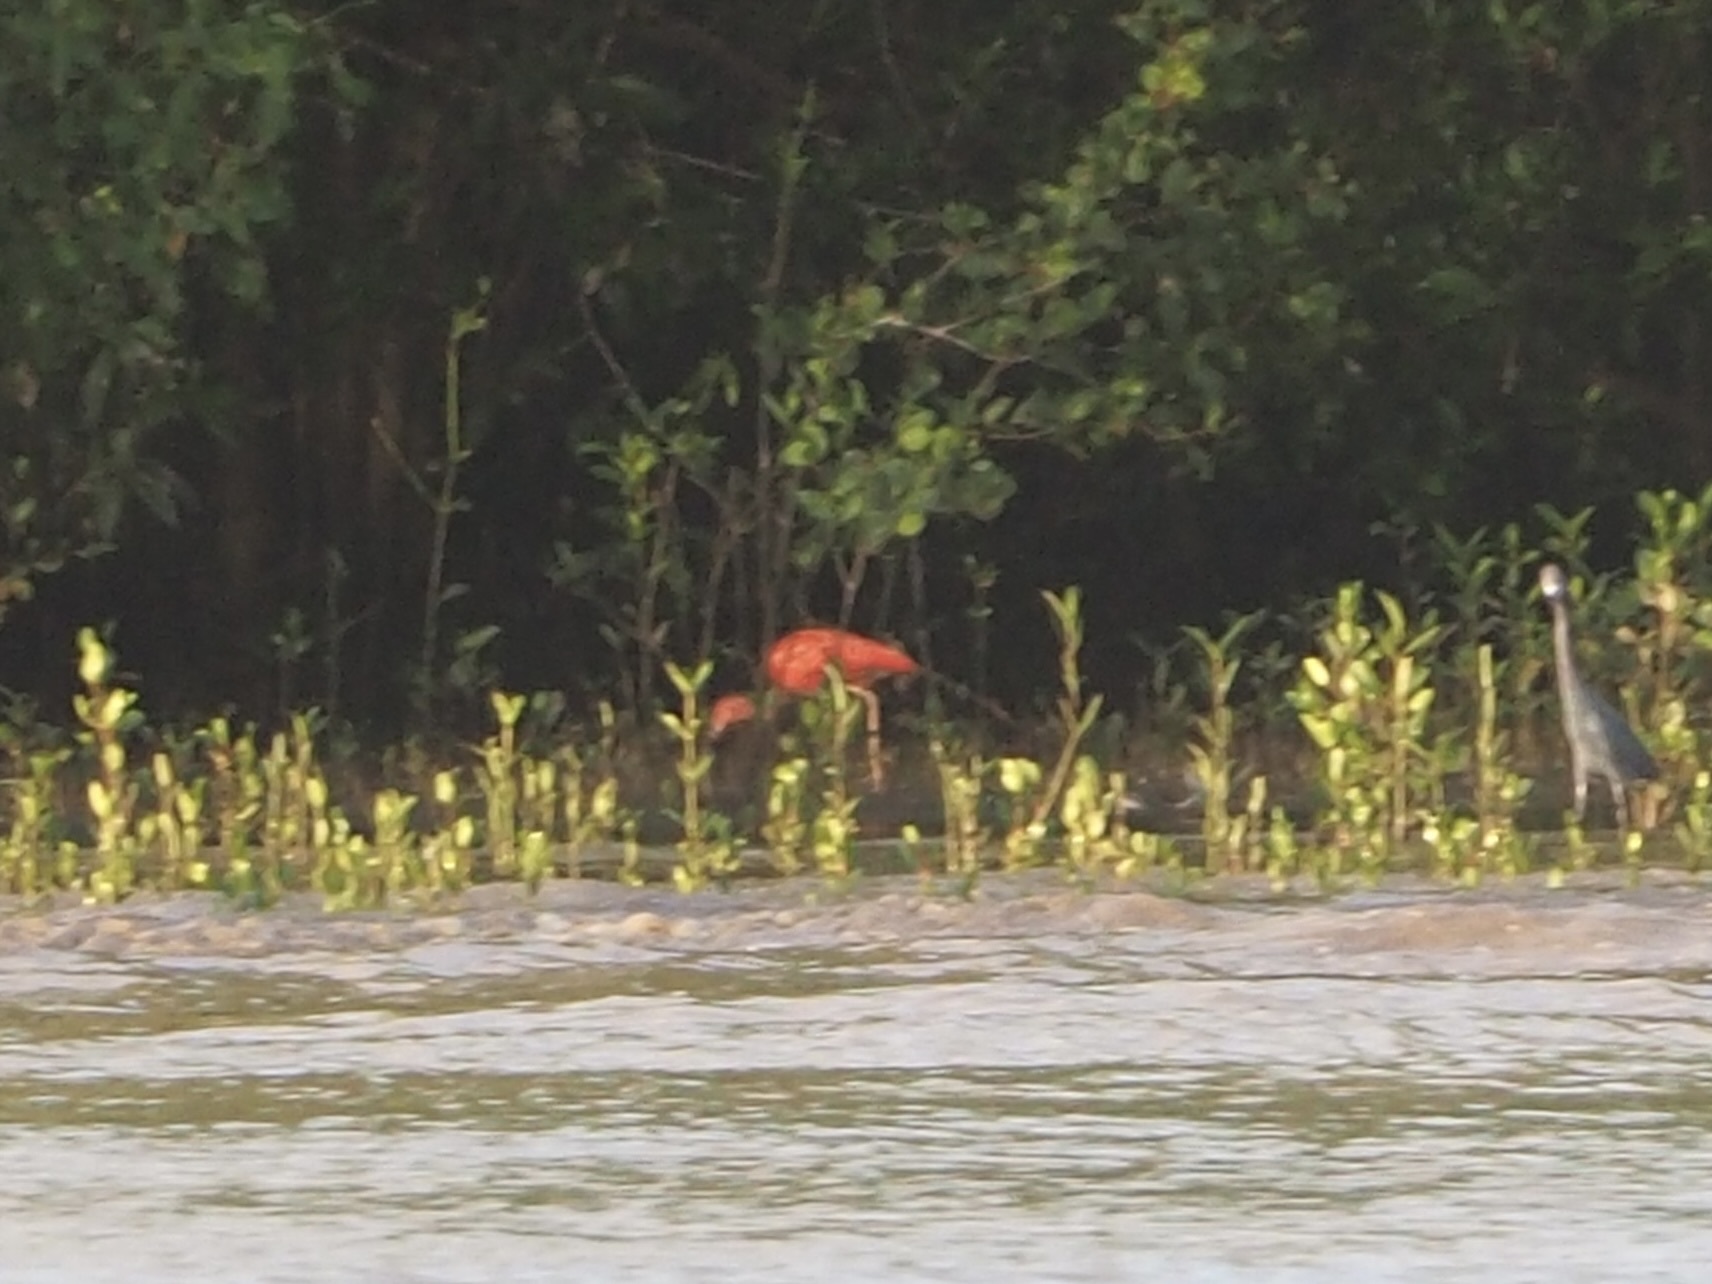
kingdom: Animalia
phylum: Chordata
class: Aves
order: Pelecaniformes
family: Threskiornithidae
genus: Eudocimus
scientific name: Eudocimus ruber
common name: Scarlet ibis
